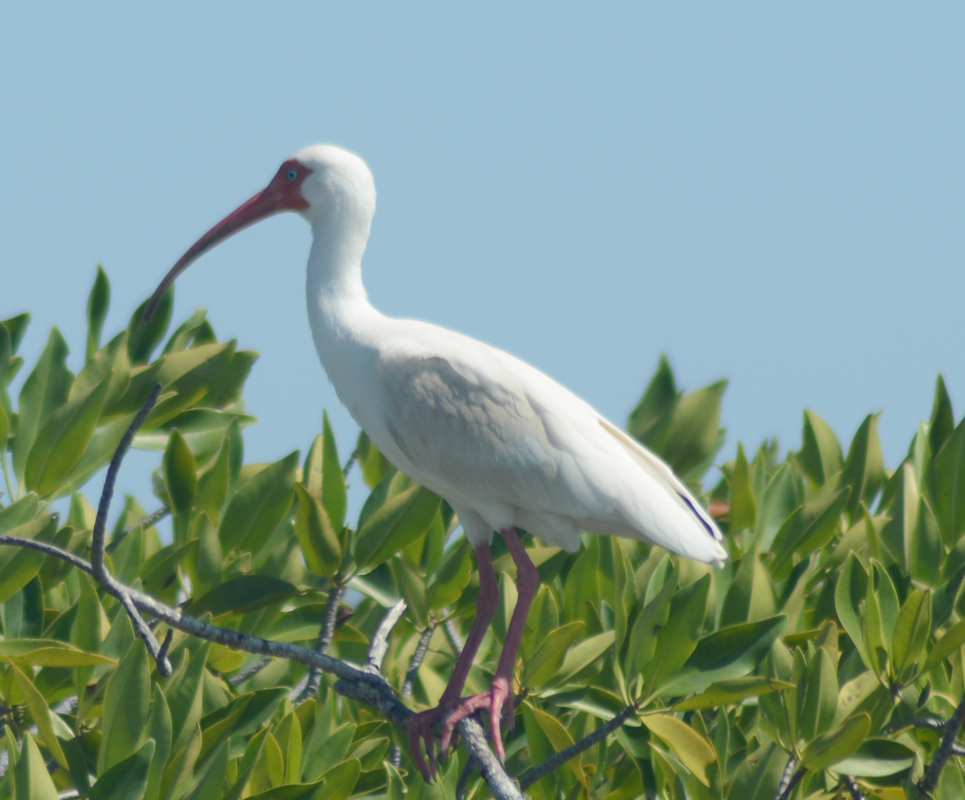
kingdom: Animalia
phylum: Chordata
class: Aves
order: Pelecaniformes
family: Threskiornithidae
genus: Eudocimus
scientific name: Eudocimus albus
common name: White ibis
